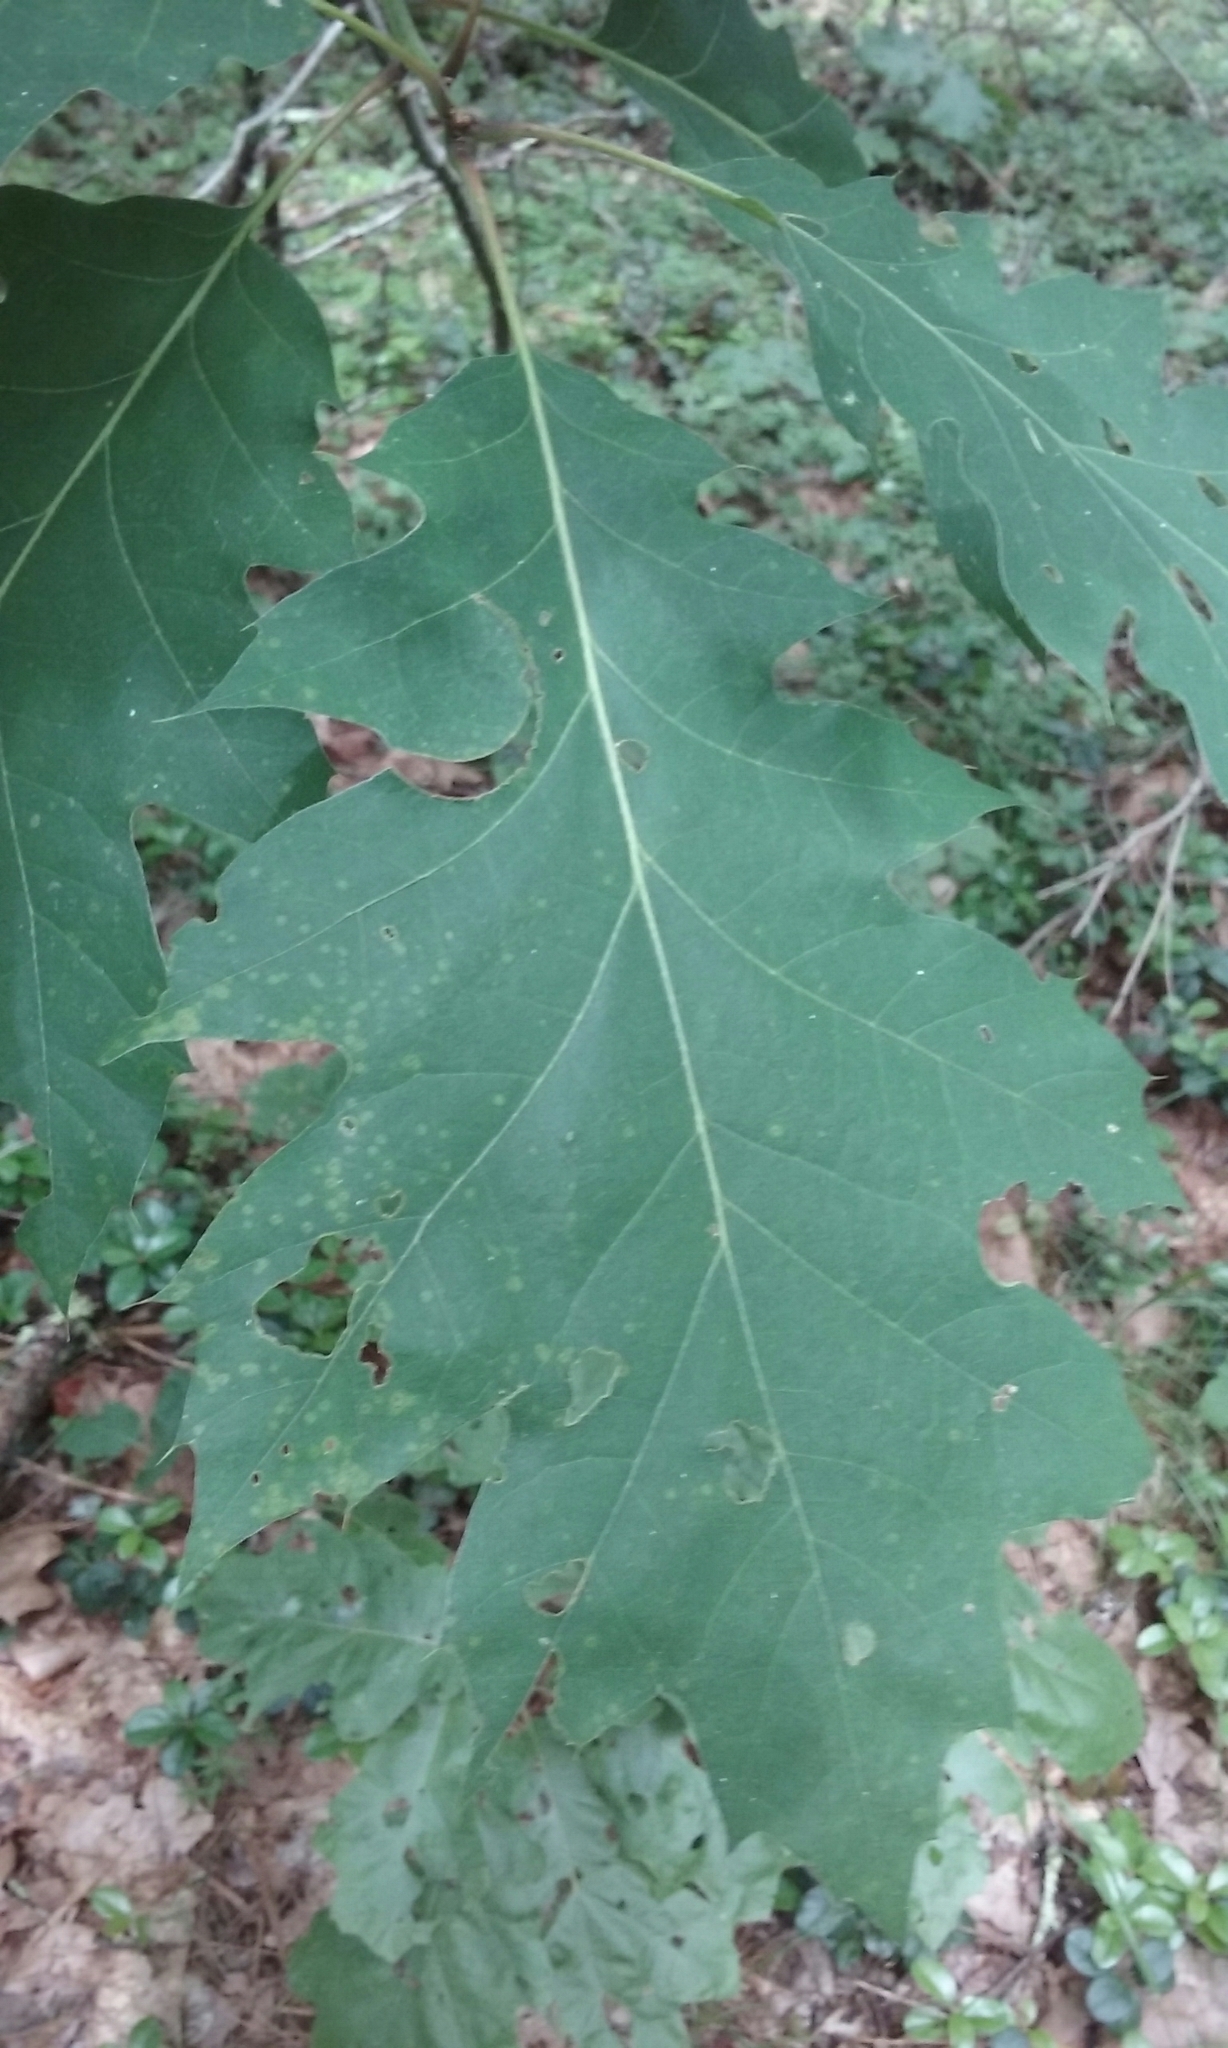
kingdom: Plantae
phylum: Tracheophyta
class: Magnoliopsida
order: Fagales
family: Fagaceae
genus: Quercus
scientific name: Quercus rubra
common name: Red oak
